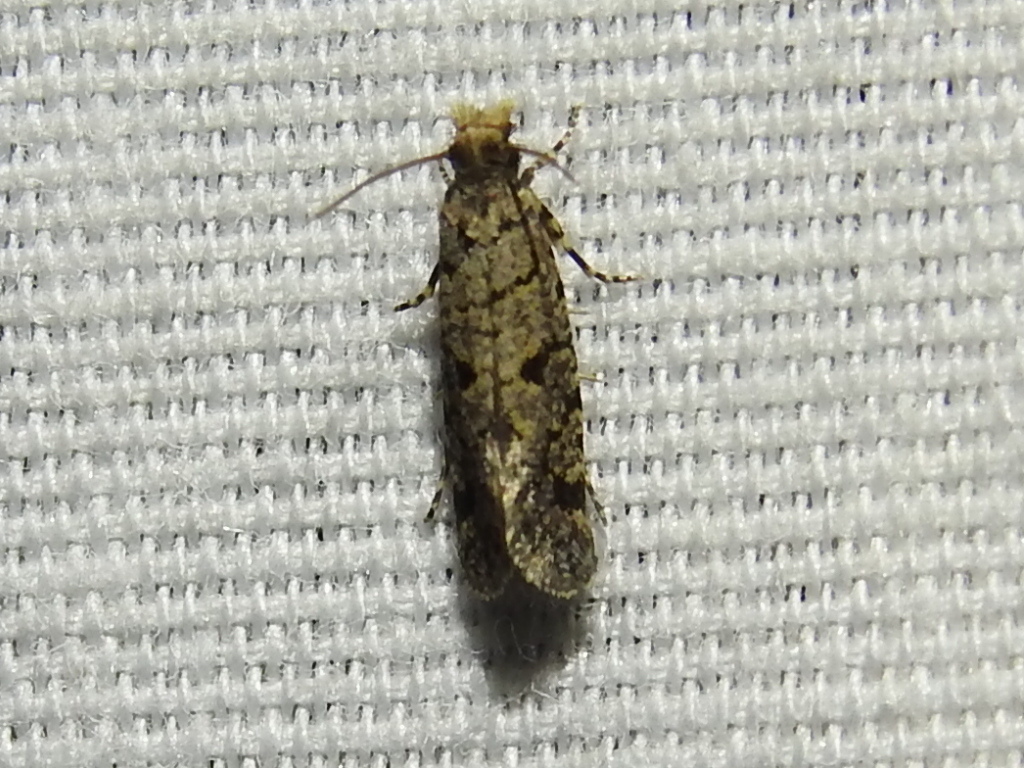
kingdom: Animalia
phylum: Arthropoda
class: Insecta
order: Lepidoptera
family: Tineidae
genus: Amydria
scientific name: Amydria
